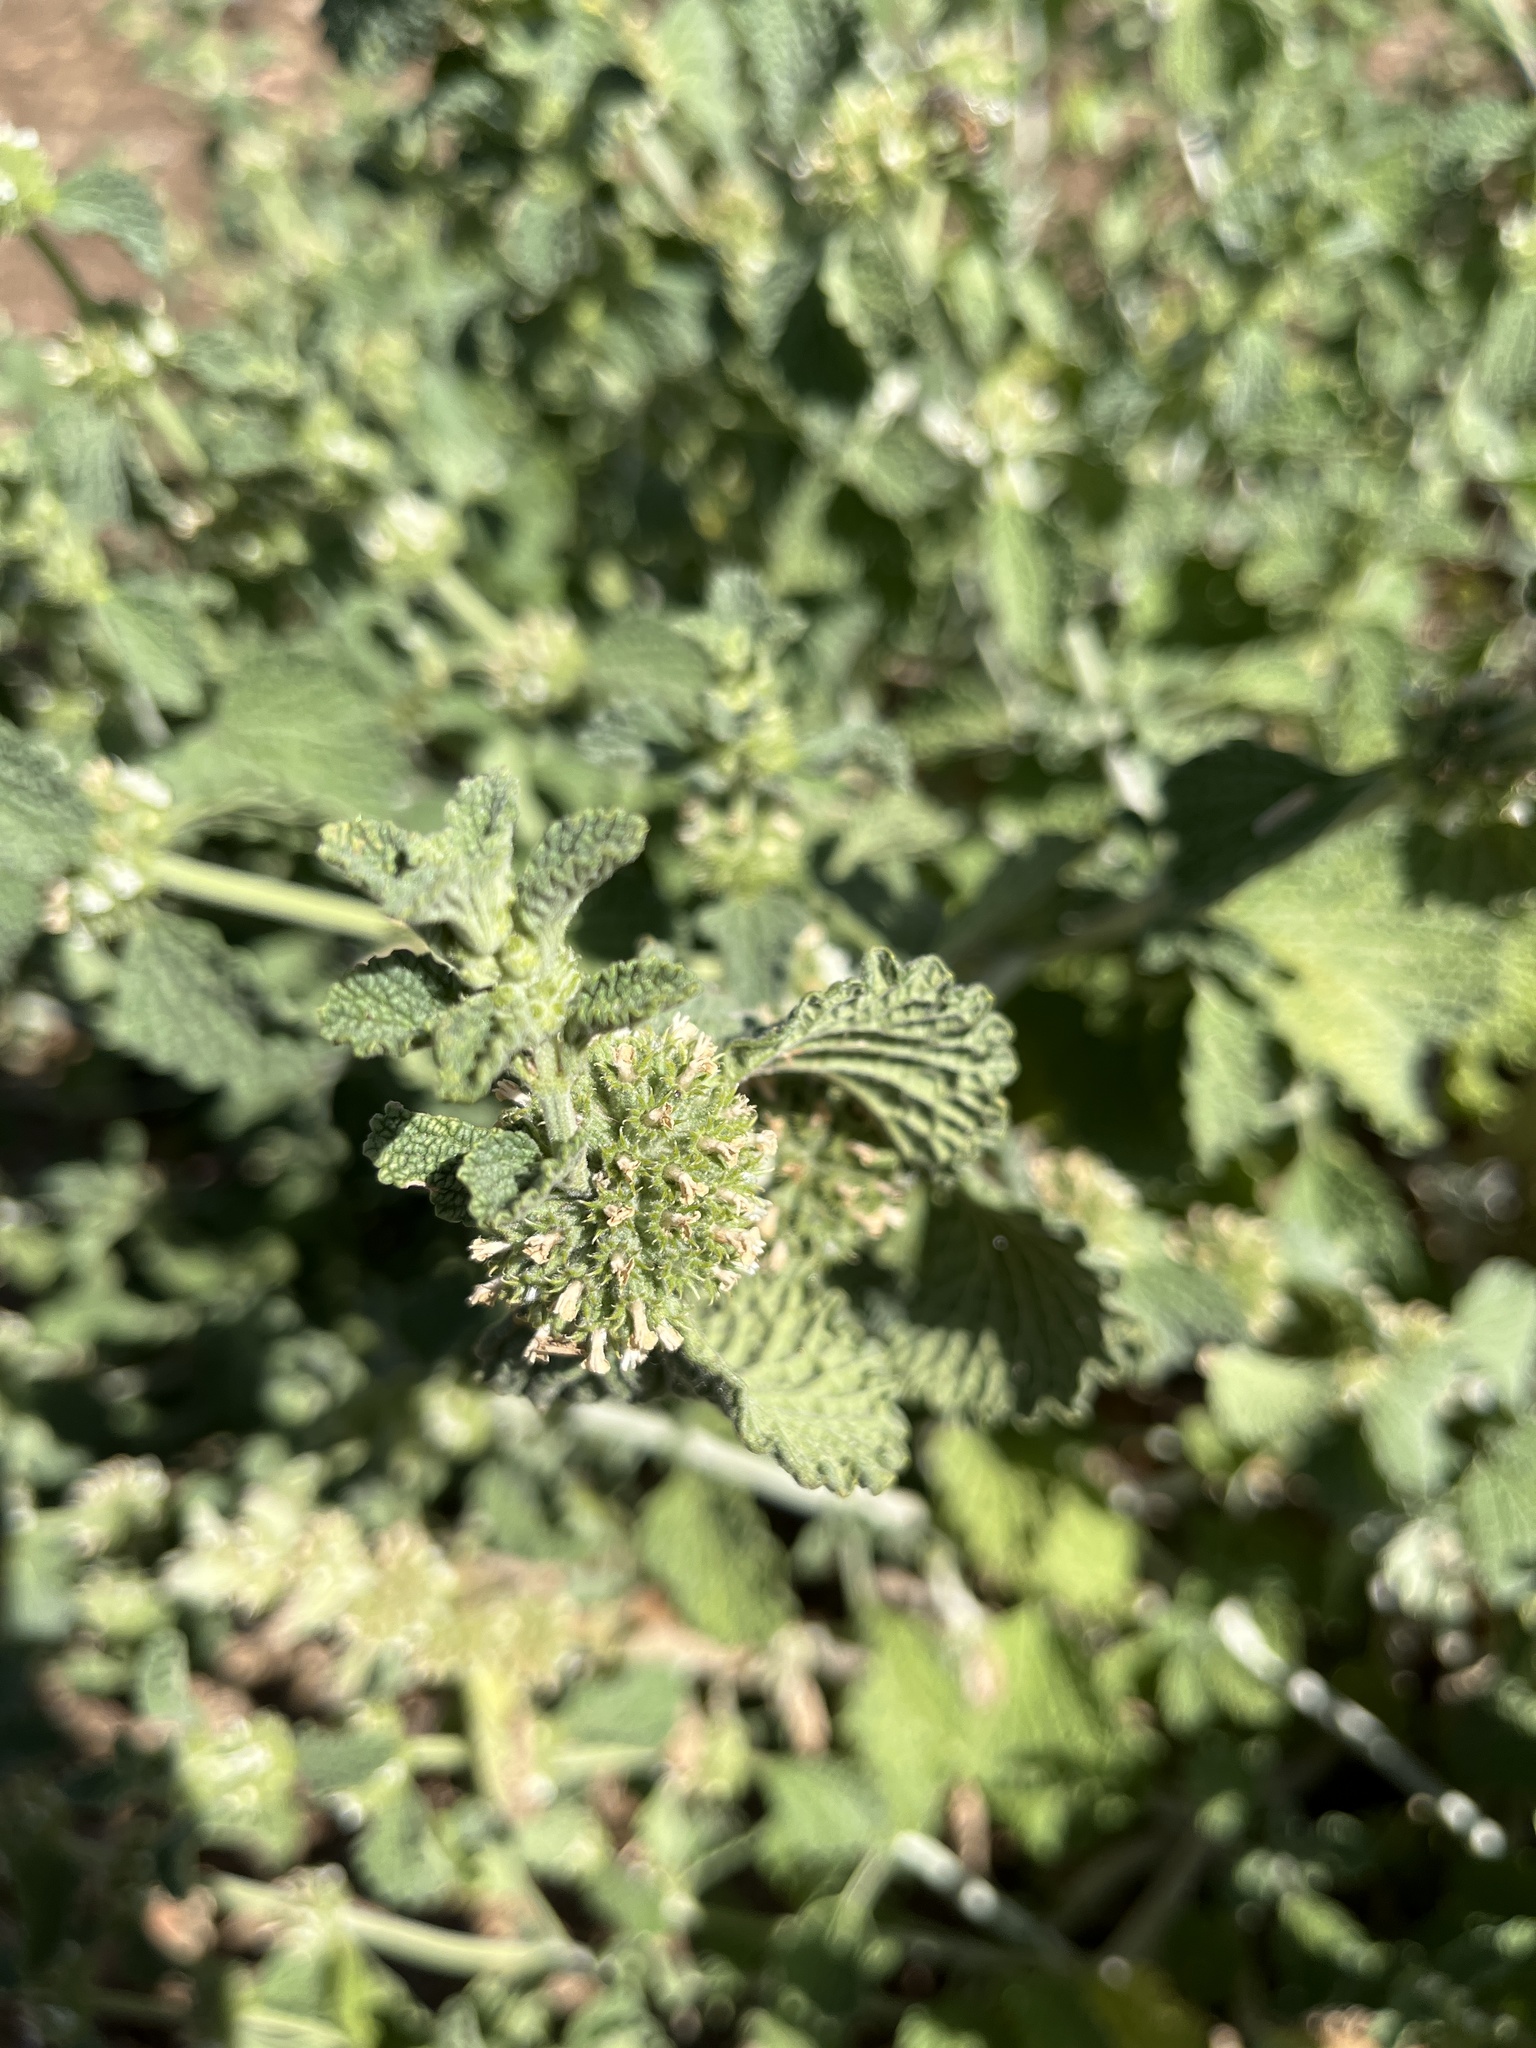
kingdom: Plantae
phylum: Tracheophyta
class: Magnoliopsida
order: Lamiales
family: Lamiaceae
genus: Marrubium
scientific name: Marrubium vulgare
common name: Horehound
